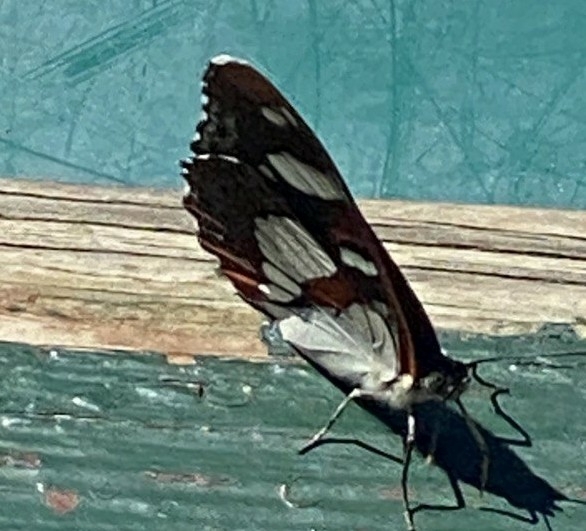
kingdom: Animalia
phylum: Arthropoda
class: Insecta
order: Lepidoptera
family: Nymphalidae
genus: Limenitis
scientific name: Limenitis reducta
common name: Southern white admiral
